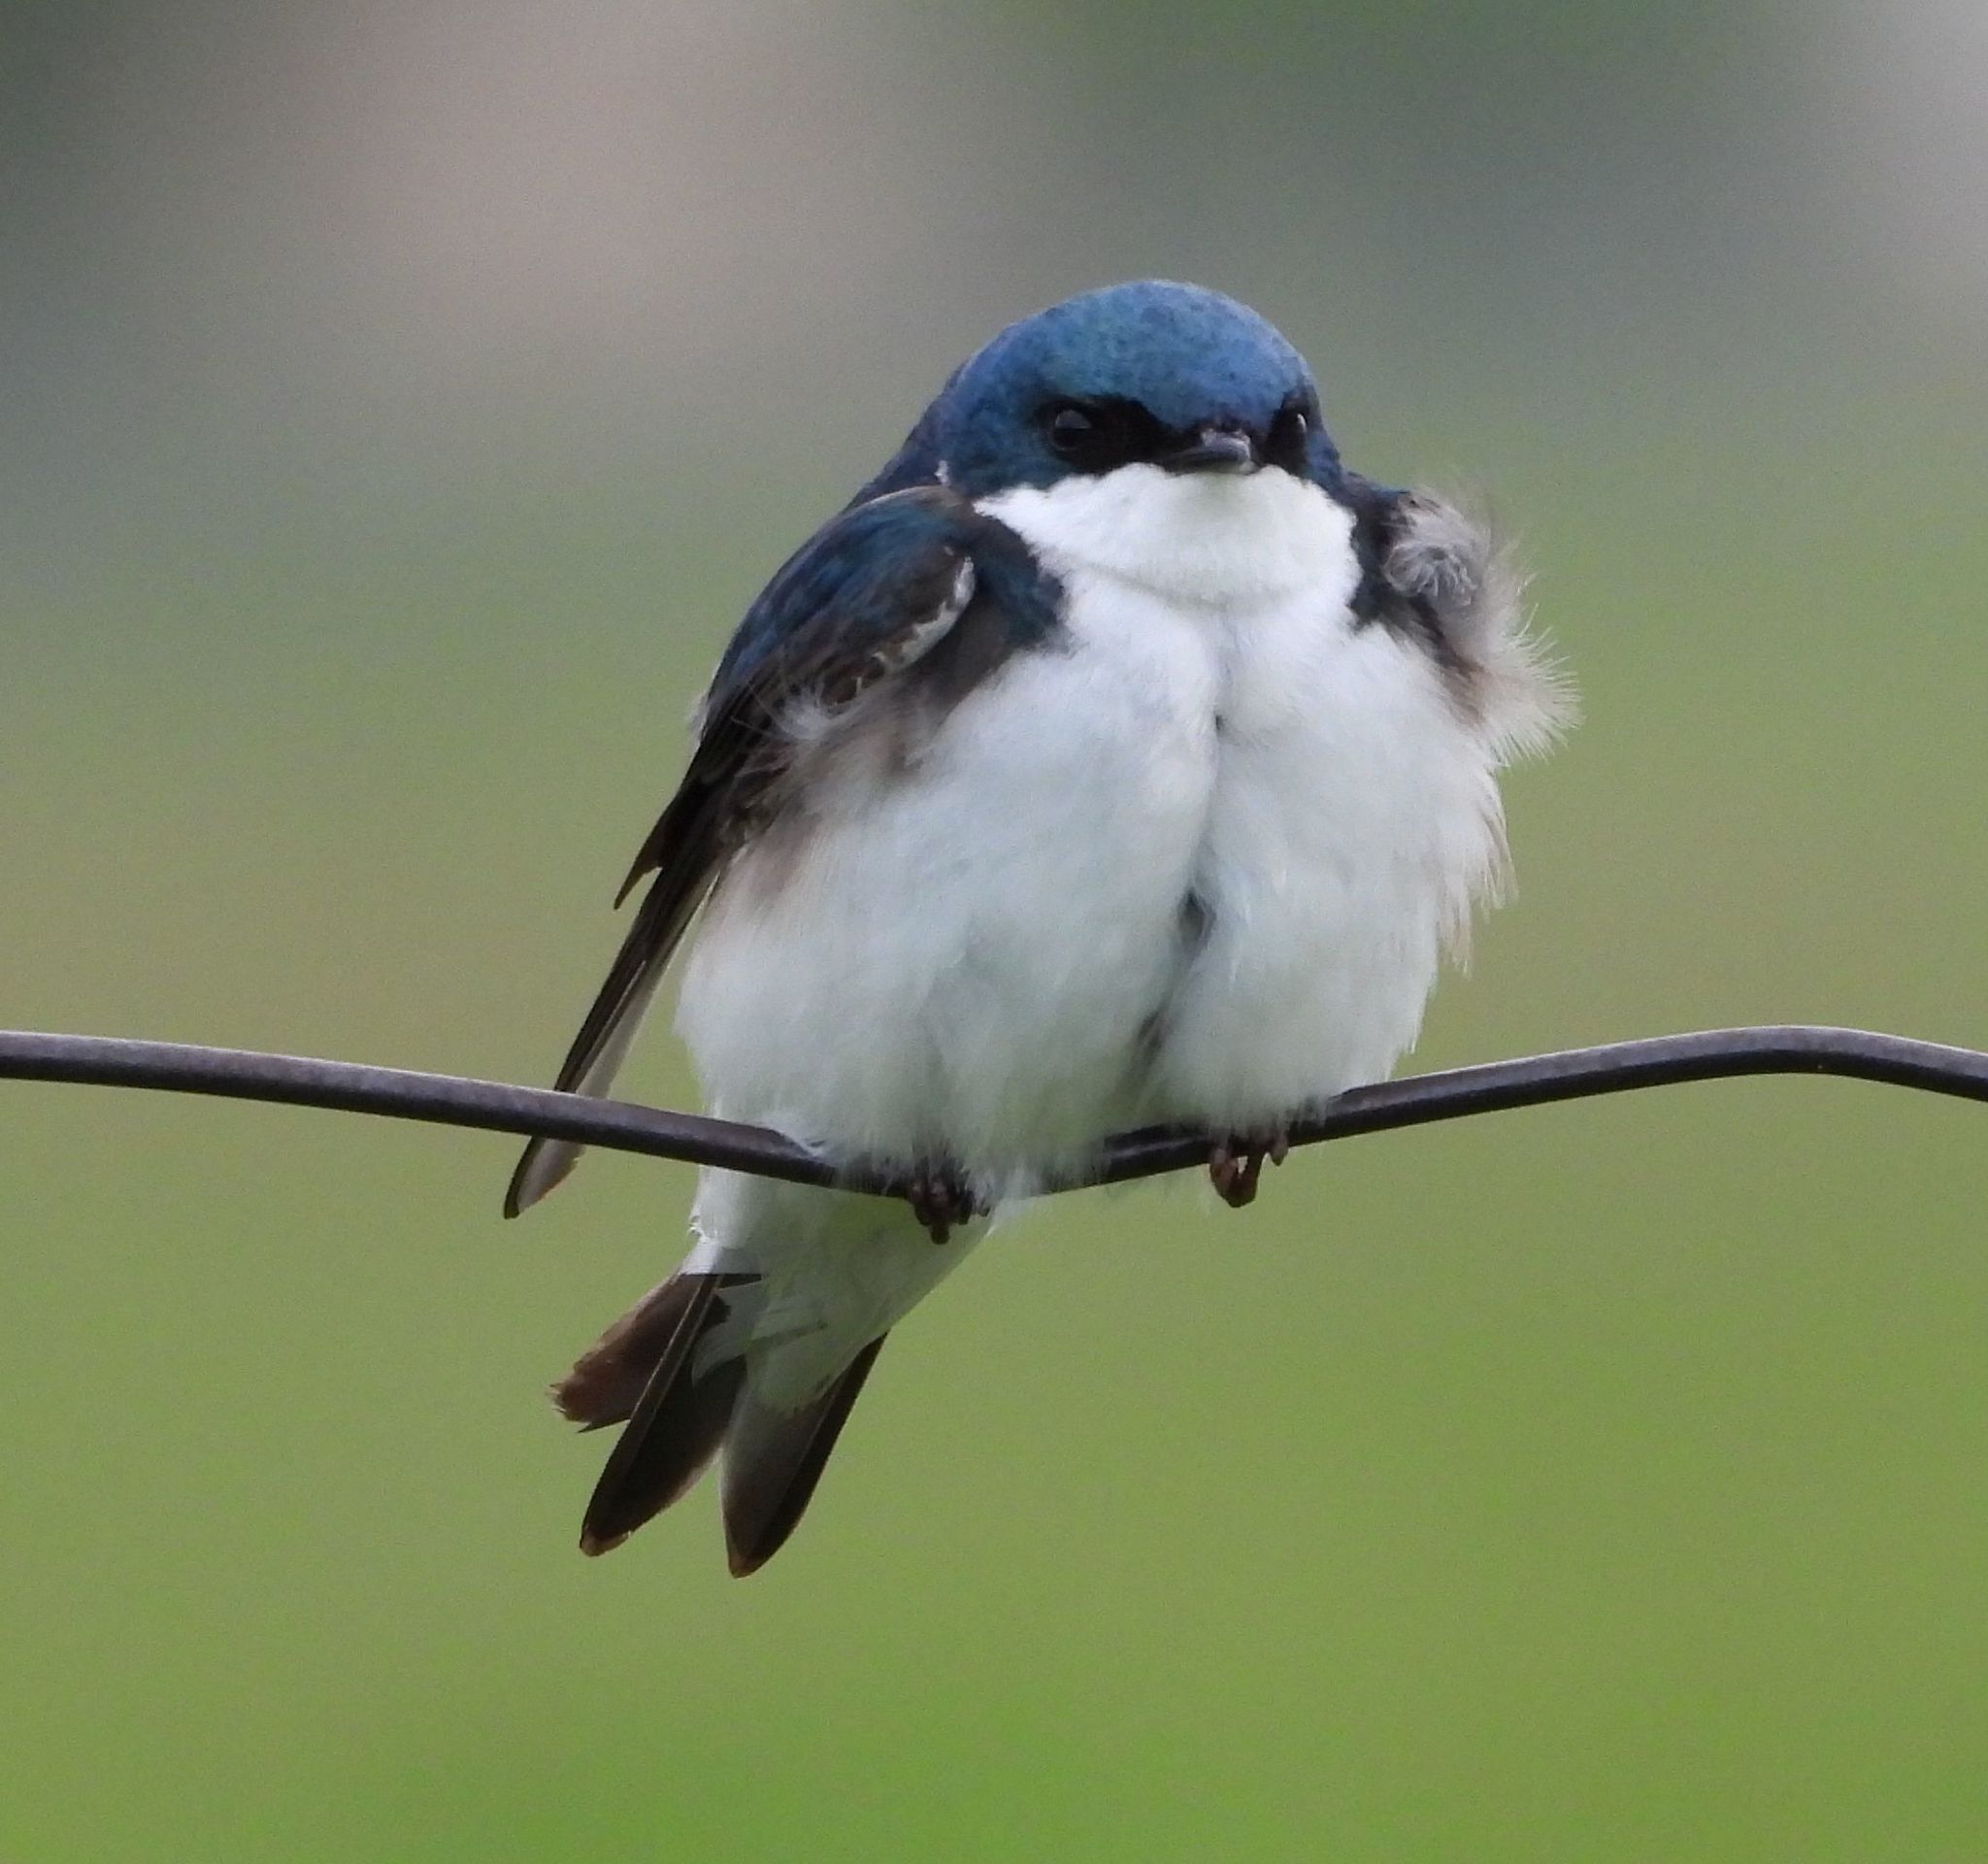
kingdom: Animalia
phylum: Chordata
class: Aves
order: Passeriformes
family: Hirundinidae
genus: Tachycineta
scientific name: Tachycineta bicolor
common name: Tree swallow
